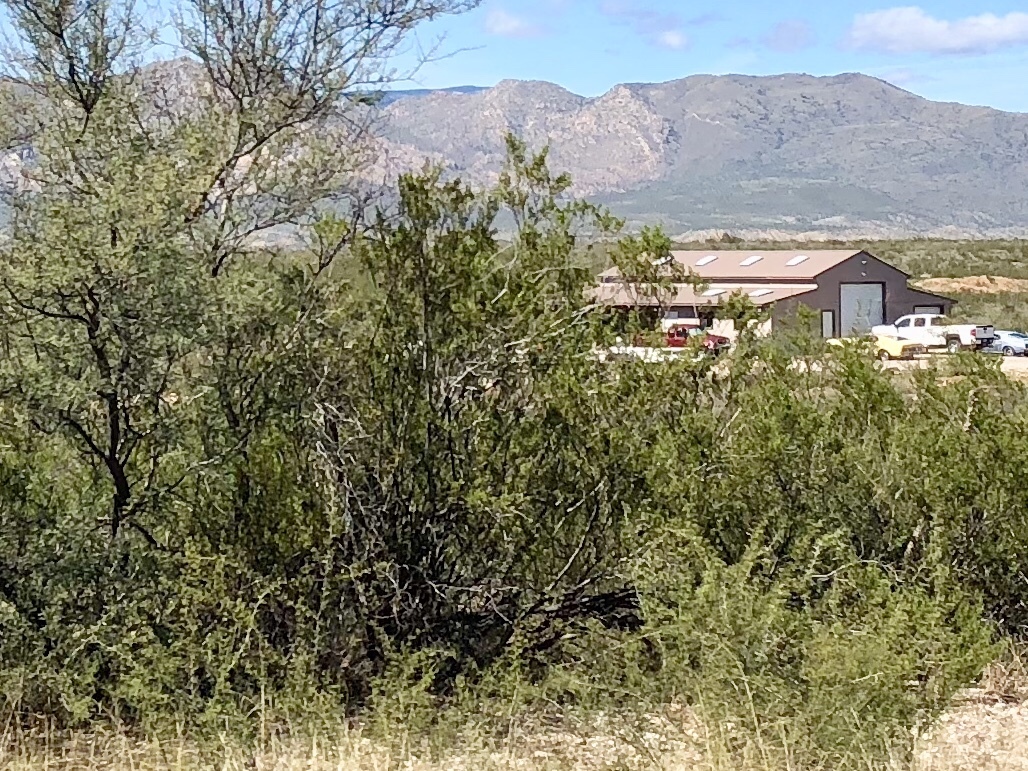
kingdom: Plantae
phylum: Tracheophyta
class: Magnoliopsida
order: Zygophyllales
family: Zygophyllaceae
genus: Larrea
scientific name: Larrea tridentata
